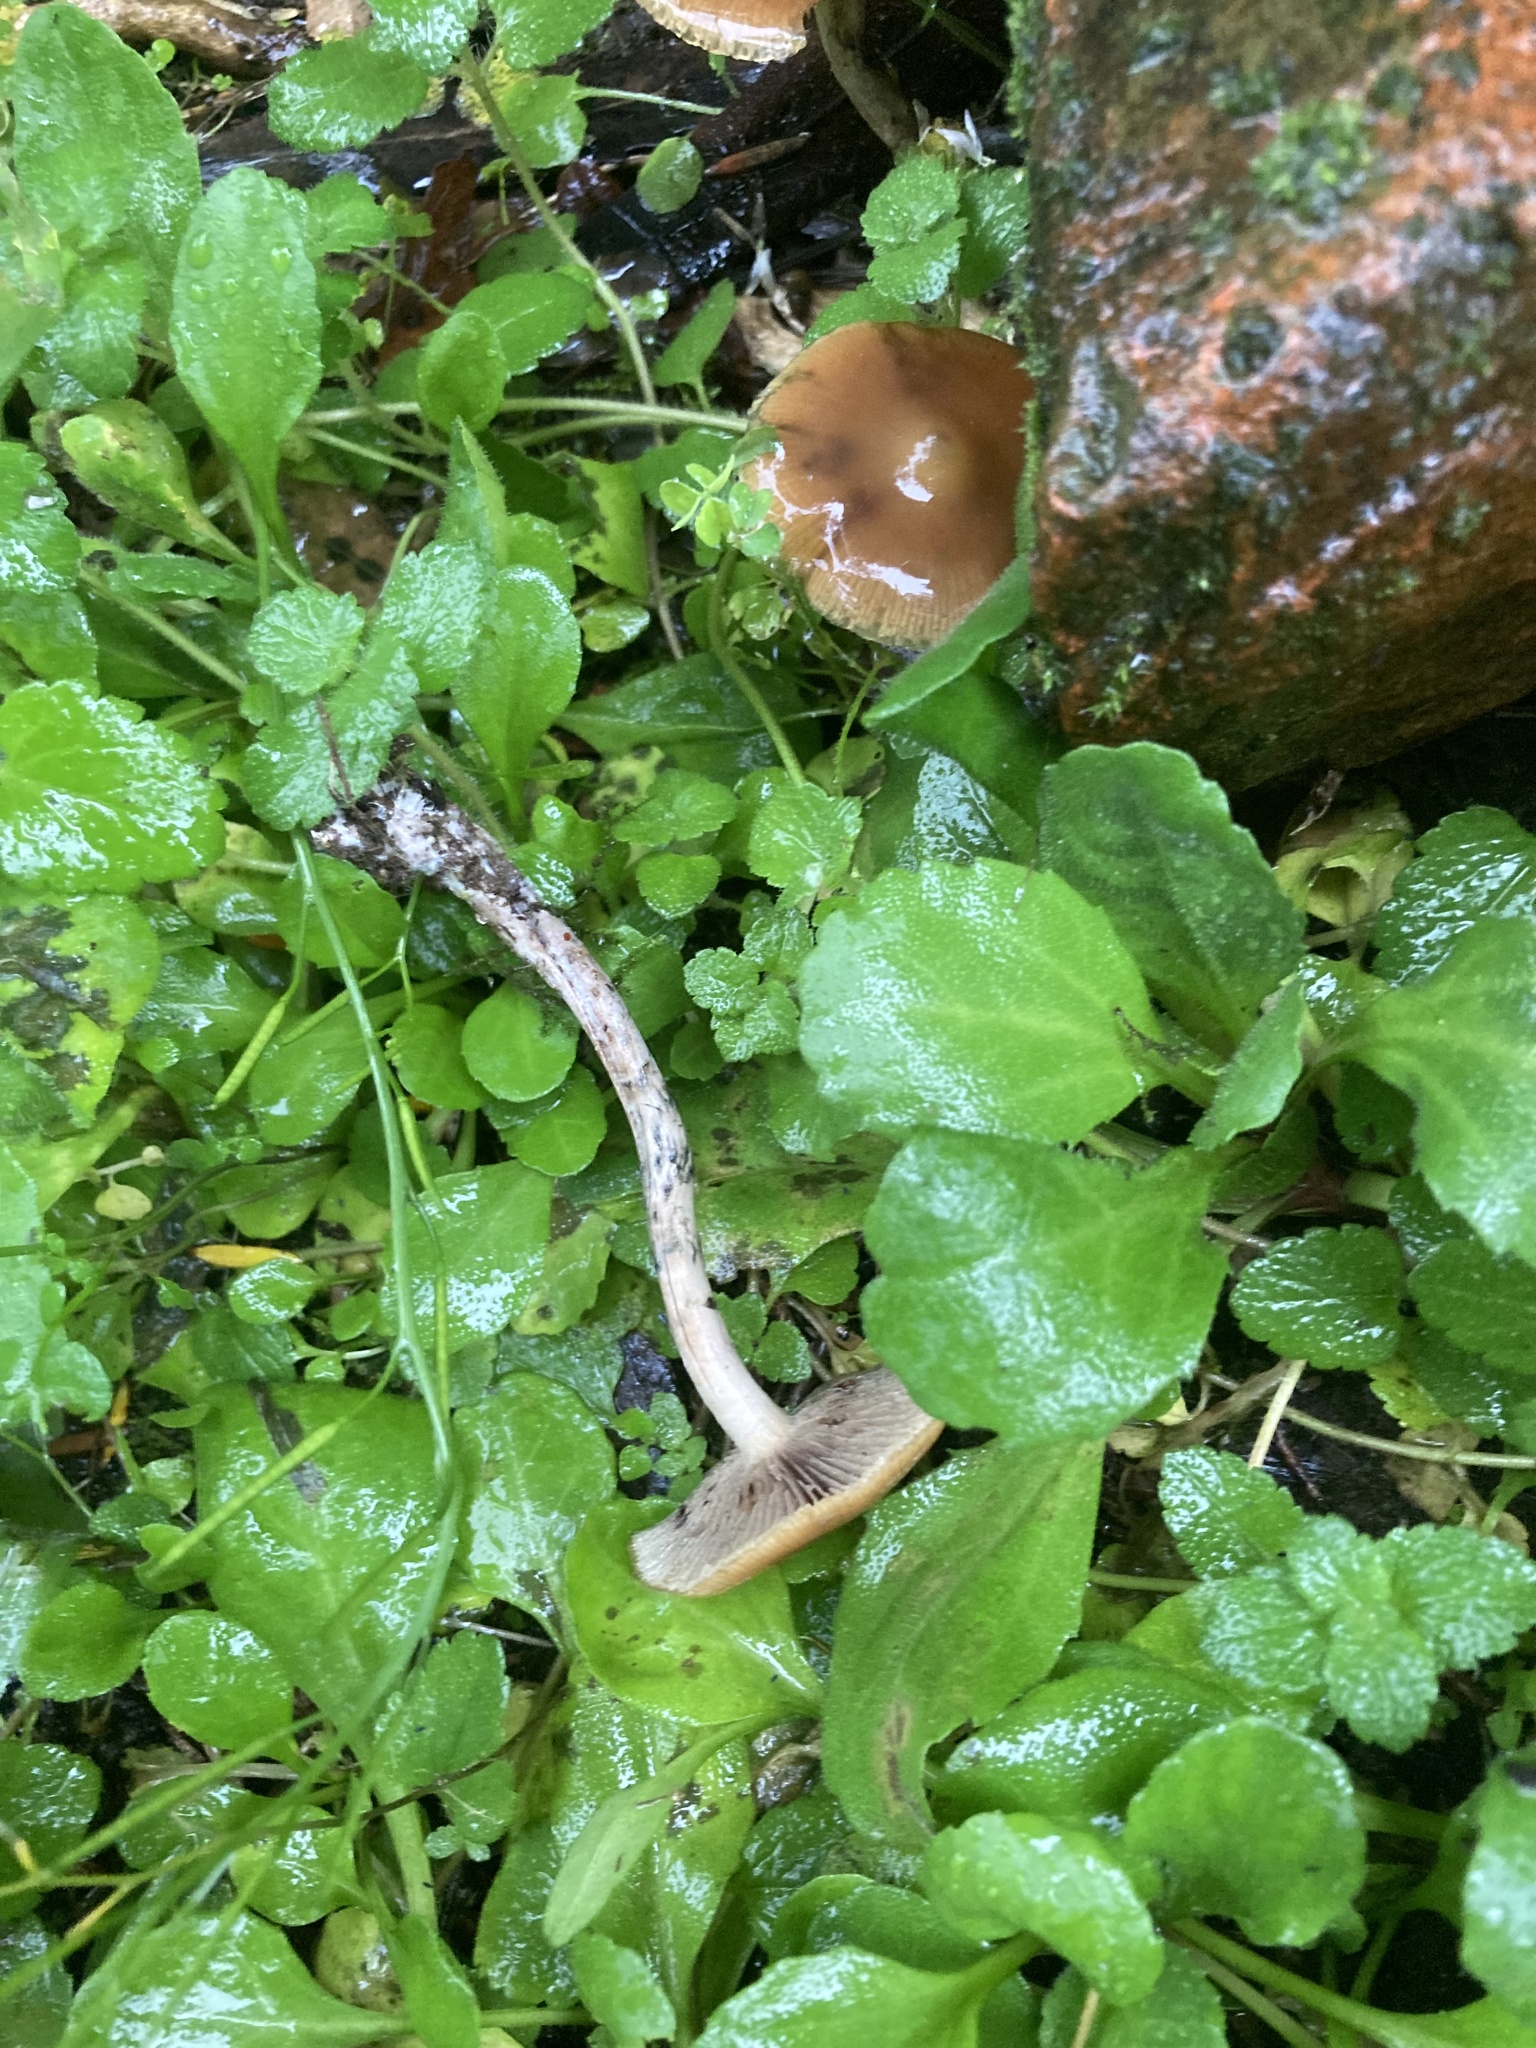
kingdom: Fungi
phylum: Basidiomycota
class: Agaricomycetes
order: Agaricales
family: Hymenogastraceae
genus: Psilocybe
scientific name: Psilocybe subaeruginosa
